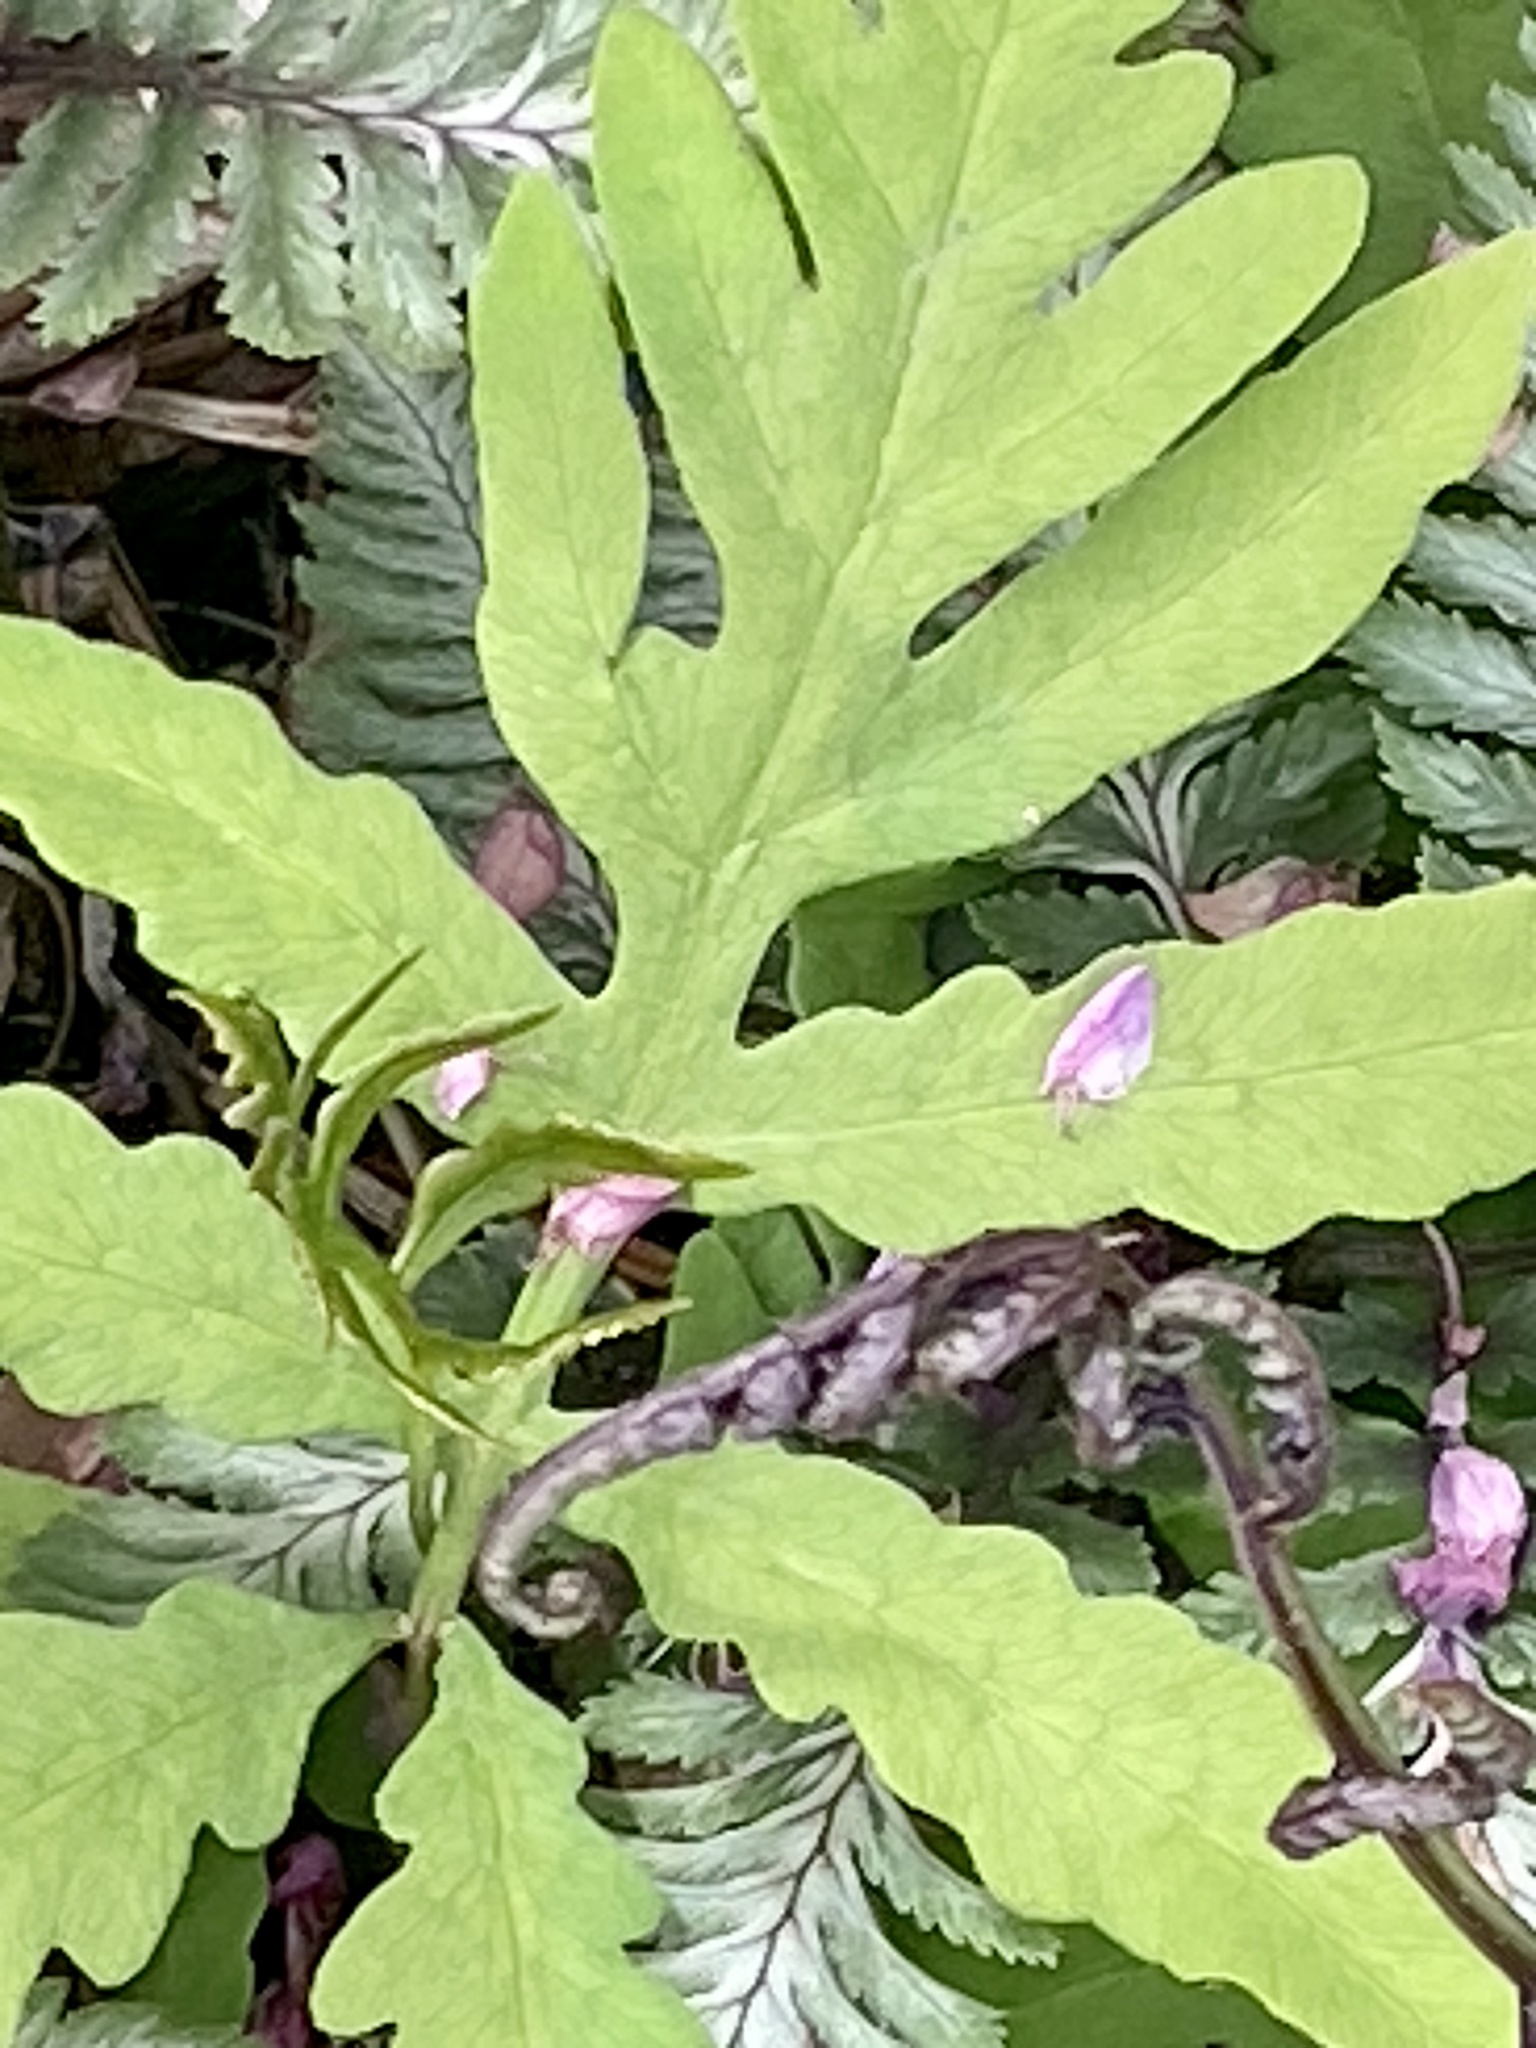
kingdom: Plantae
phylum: Tracheophyta
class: Polypodiopsida
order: Polypodiales
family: Onocleaceae
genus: Onoclea
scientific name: Onoclea sensibilis
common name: Sensitive fern
